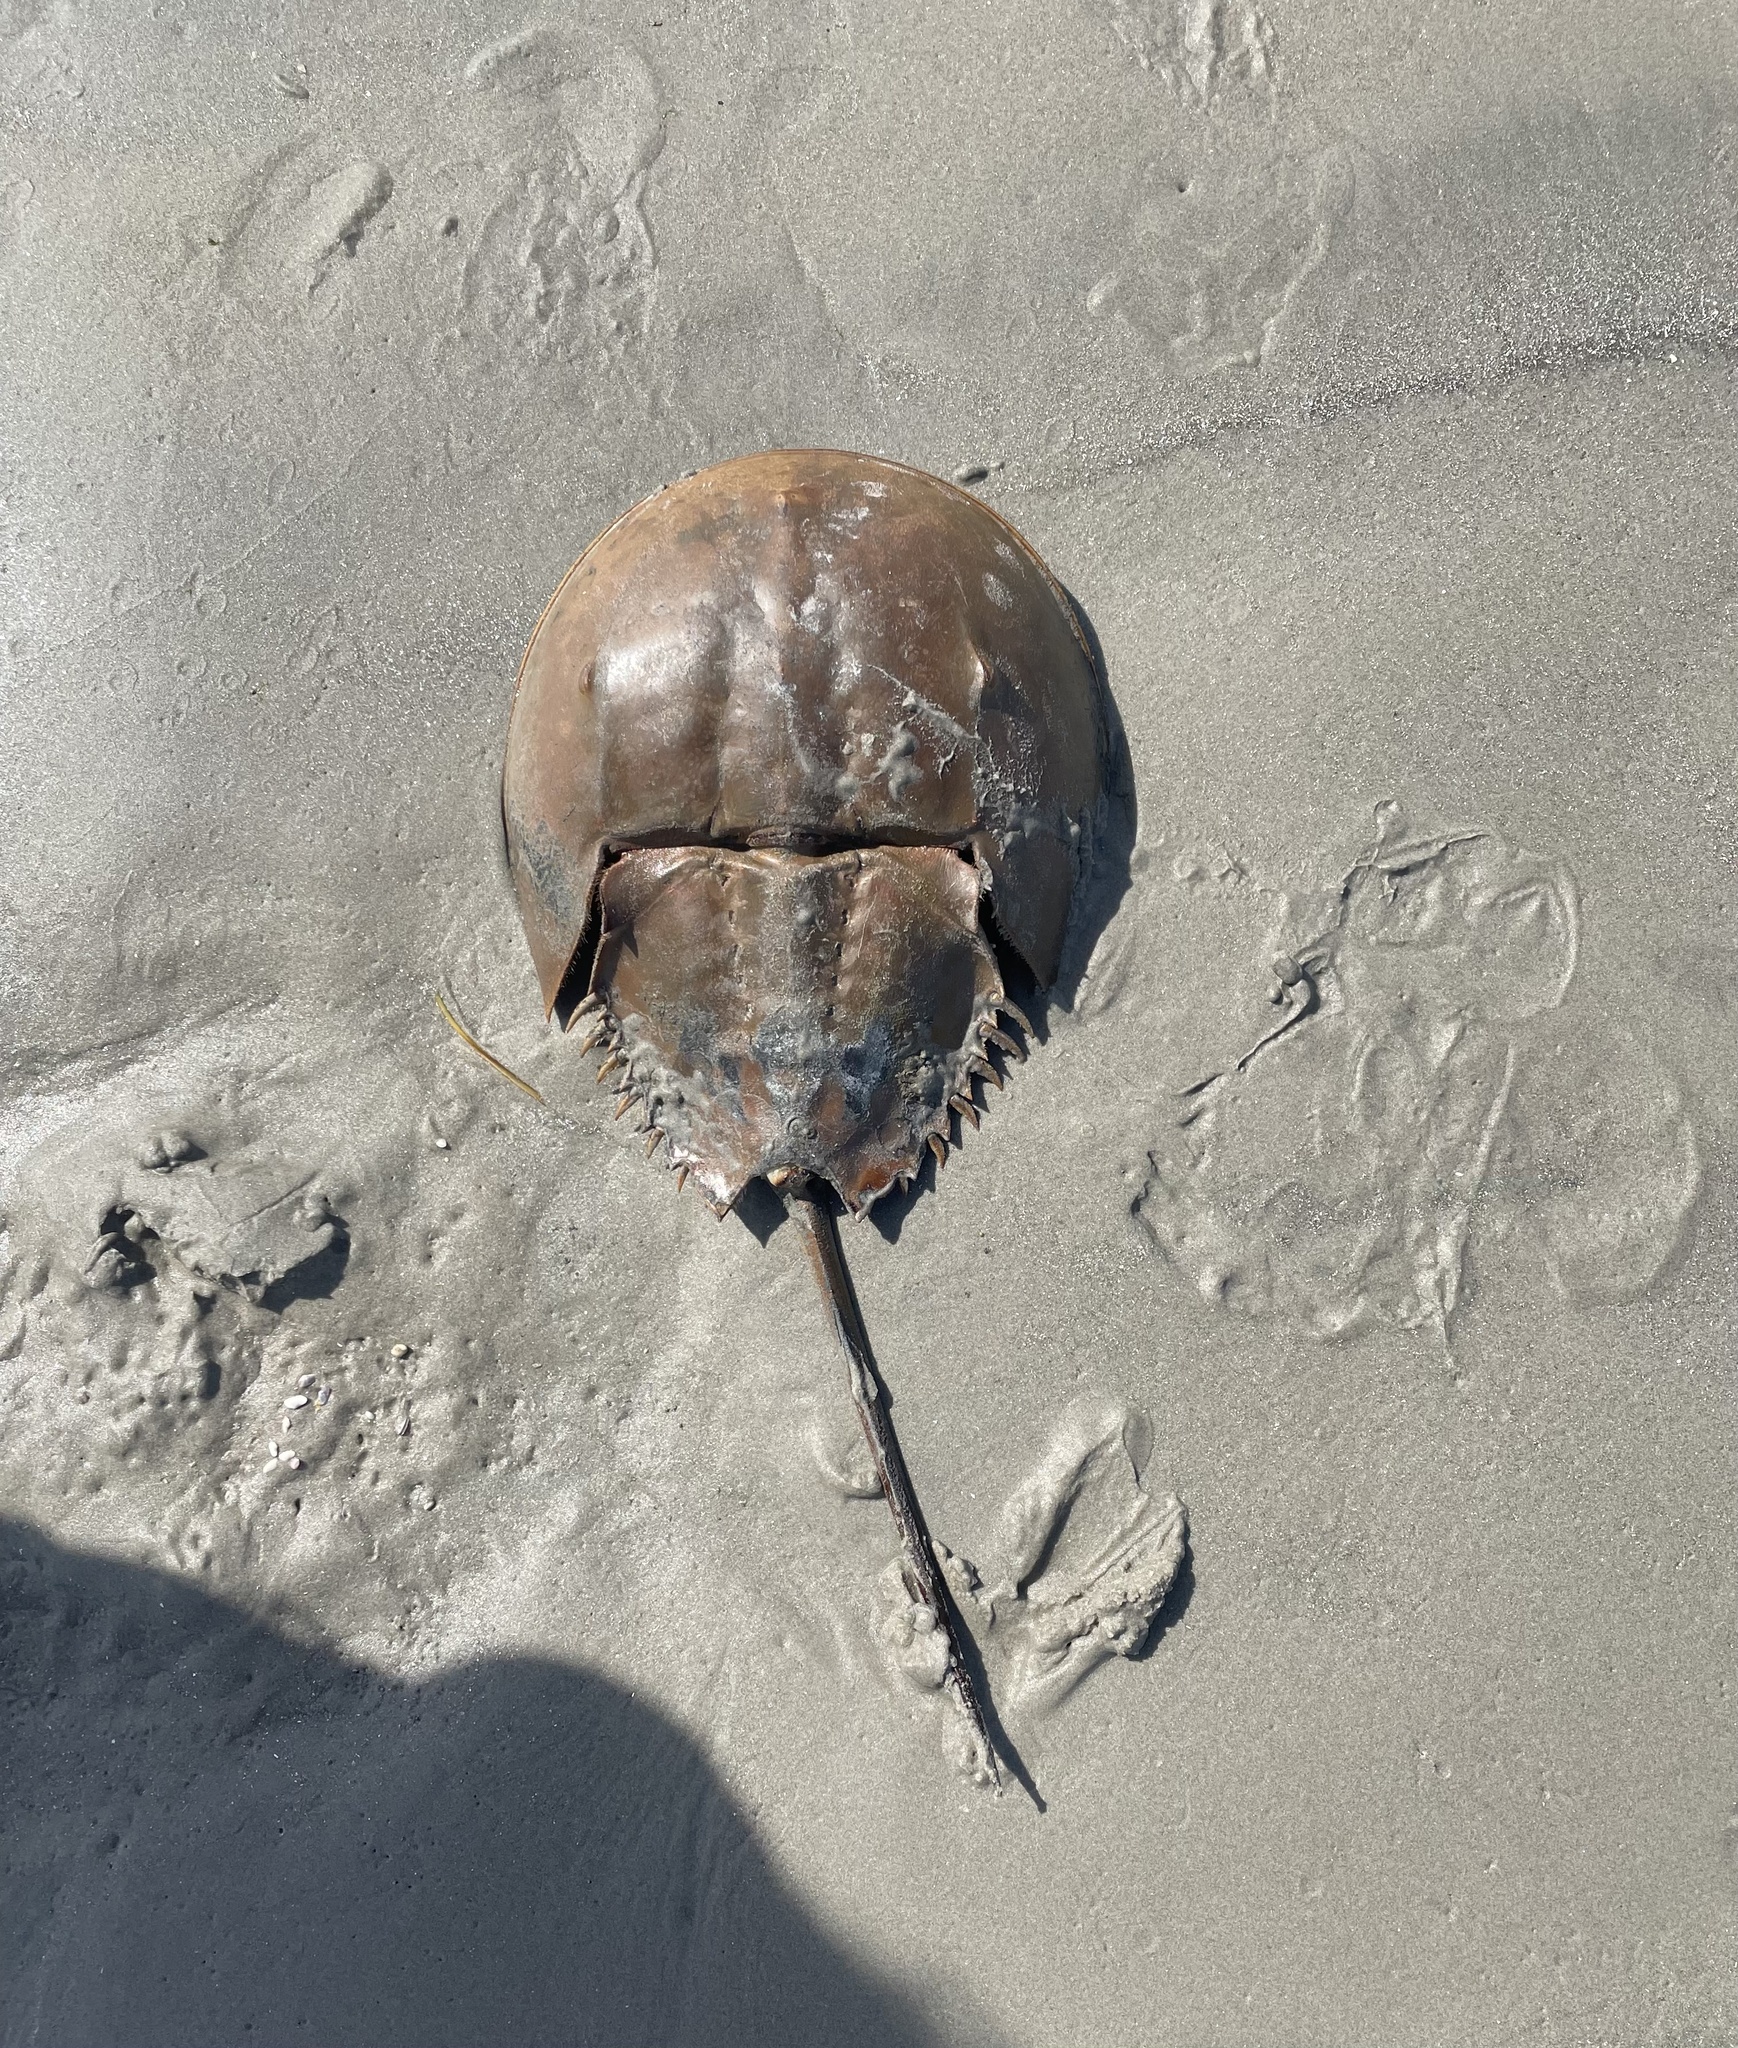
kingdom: Animalia
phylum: Arthropoda
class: Merostomata
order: Xiphosurida
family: Limulidae
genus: Limulus
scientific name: Limulus polyphemus
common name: Horseshoe crab
